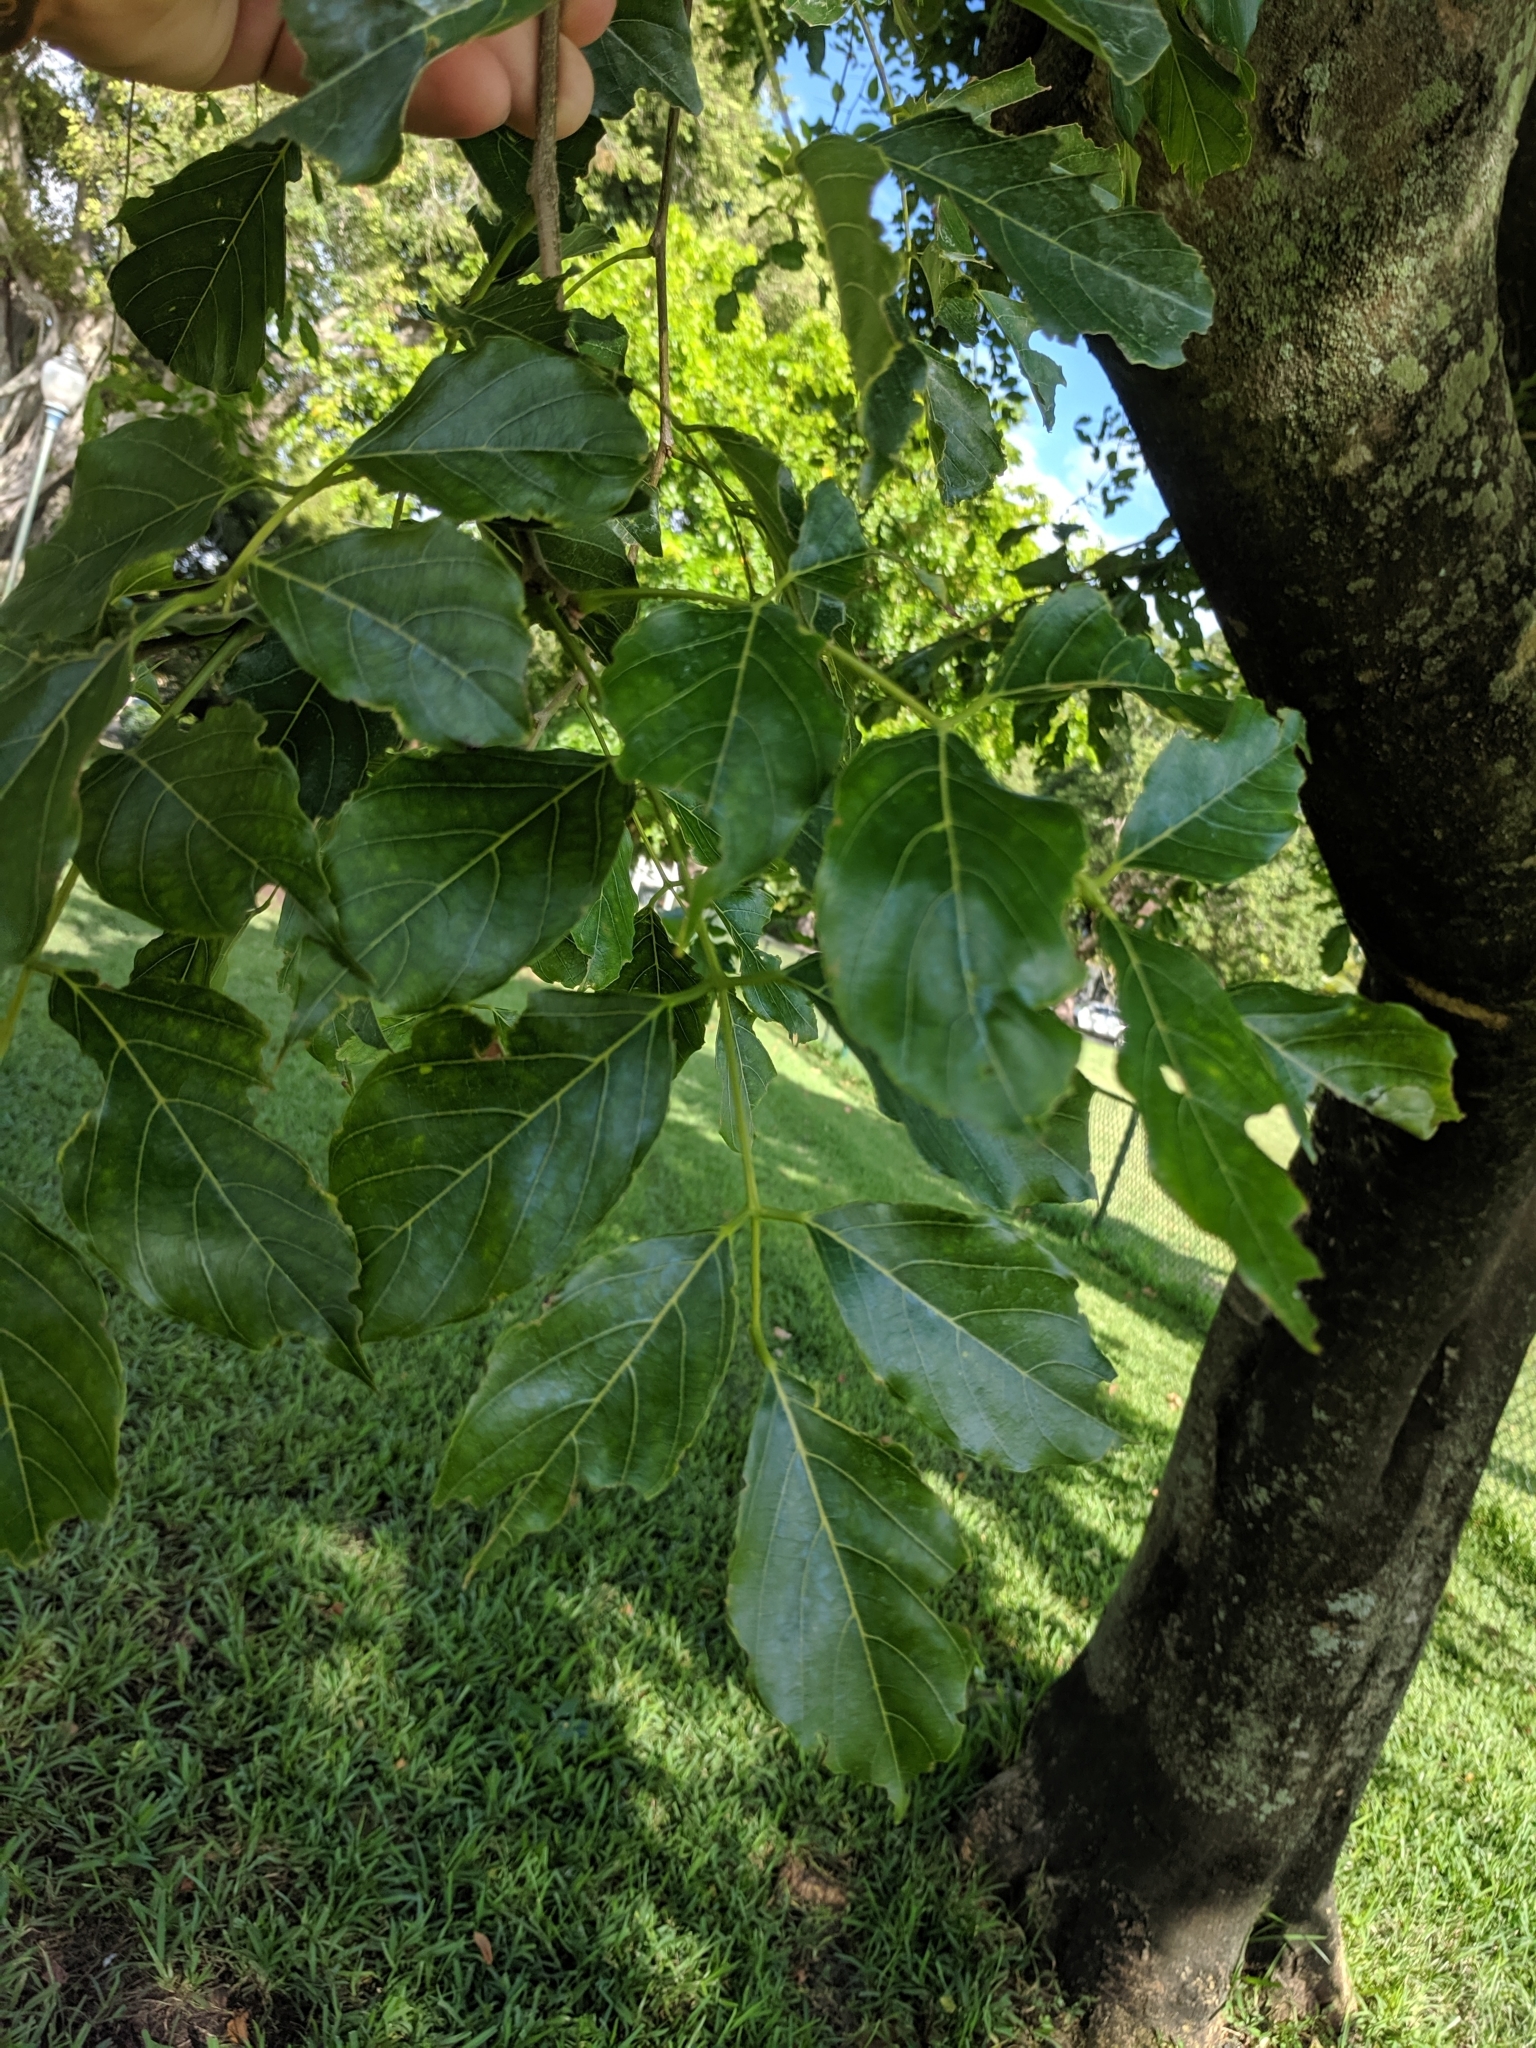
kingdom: Plantae
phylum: Tracheophyta
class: Magnoliopsida
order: Fabales
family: Fabaceae
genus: Pongamia
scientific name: Pongamia pinnata
